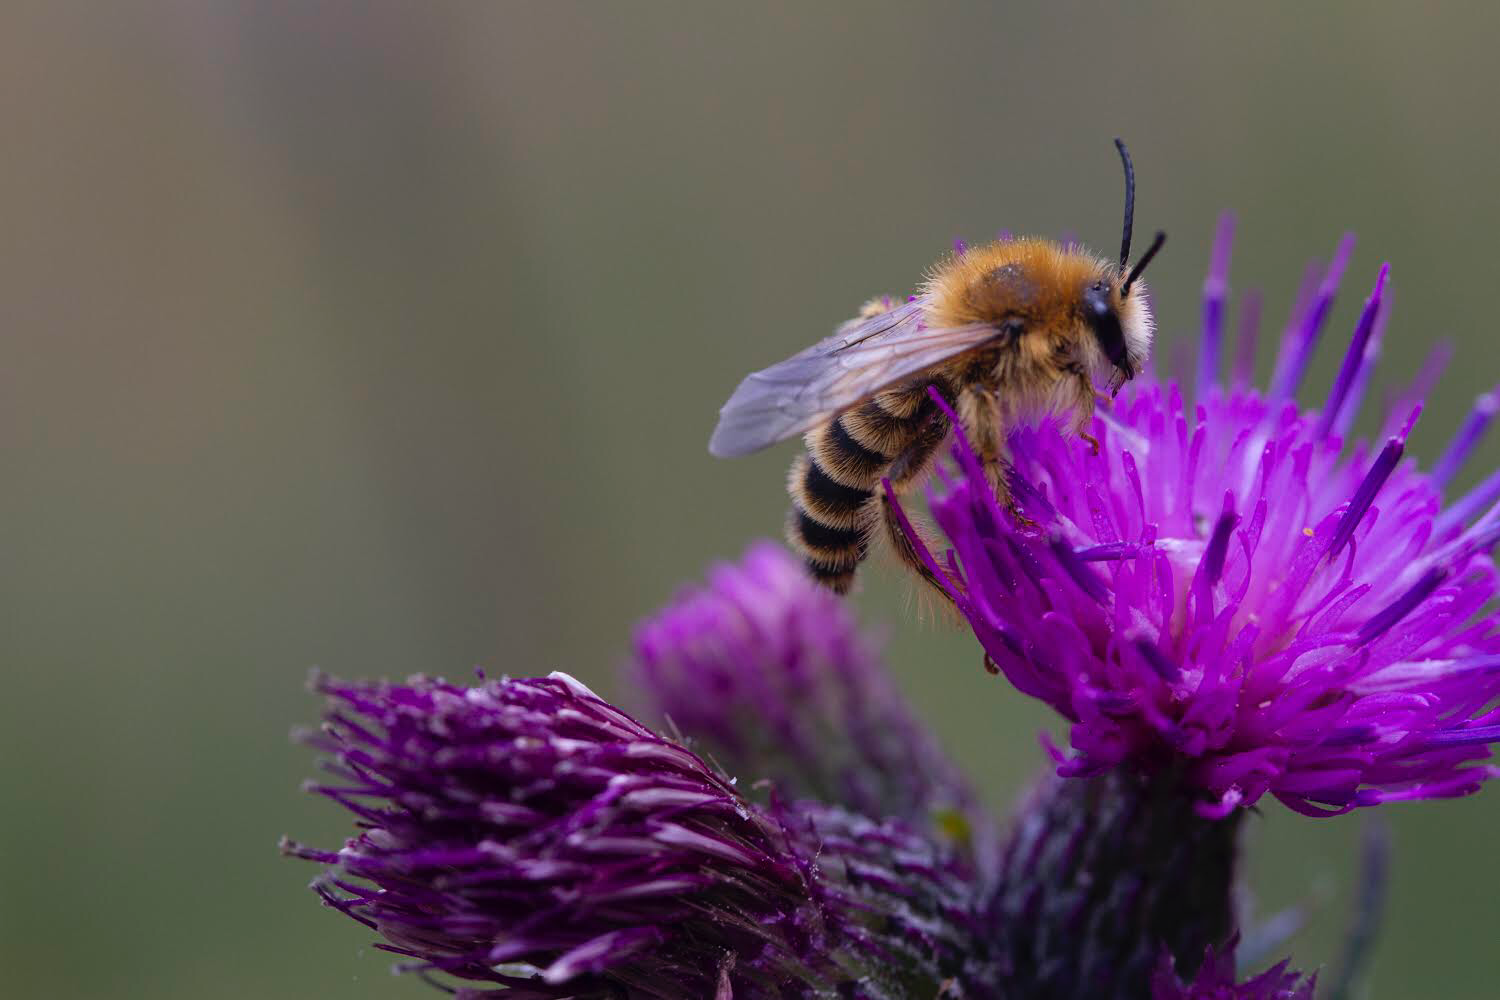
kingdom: Animalia
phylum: Arthropoda
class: Insecta
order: Hymenoptera
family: Melittidae
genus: Dasypoda
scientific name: Dasypoda hirtipes
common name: Pantaloon bee
